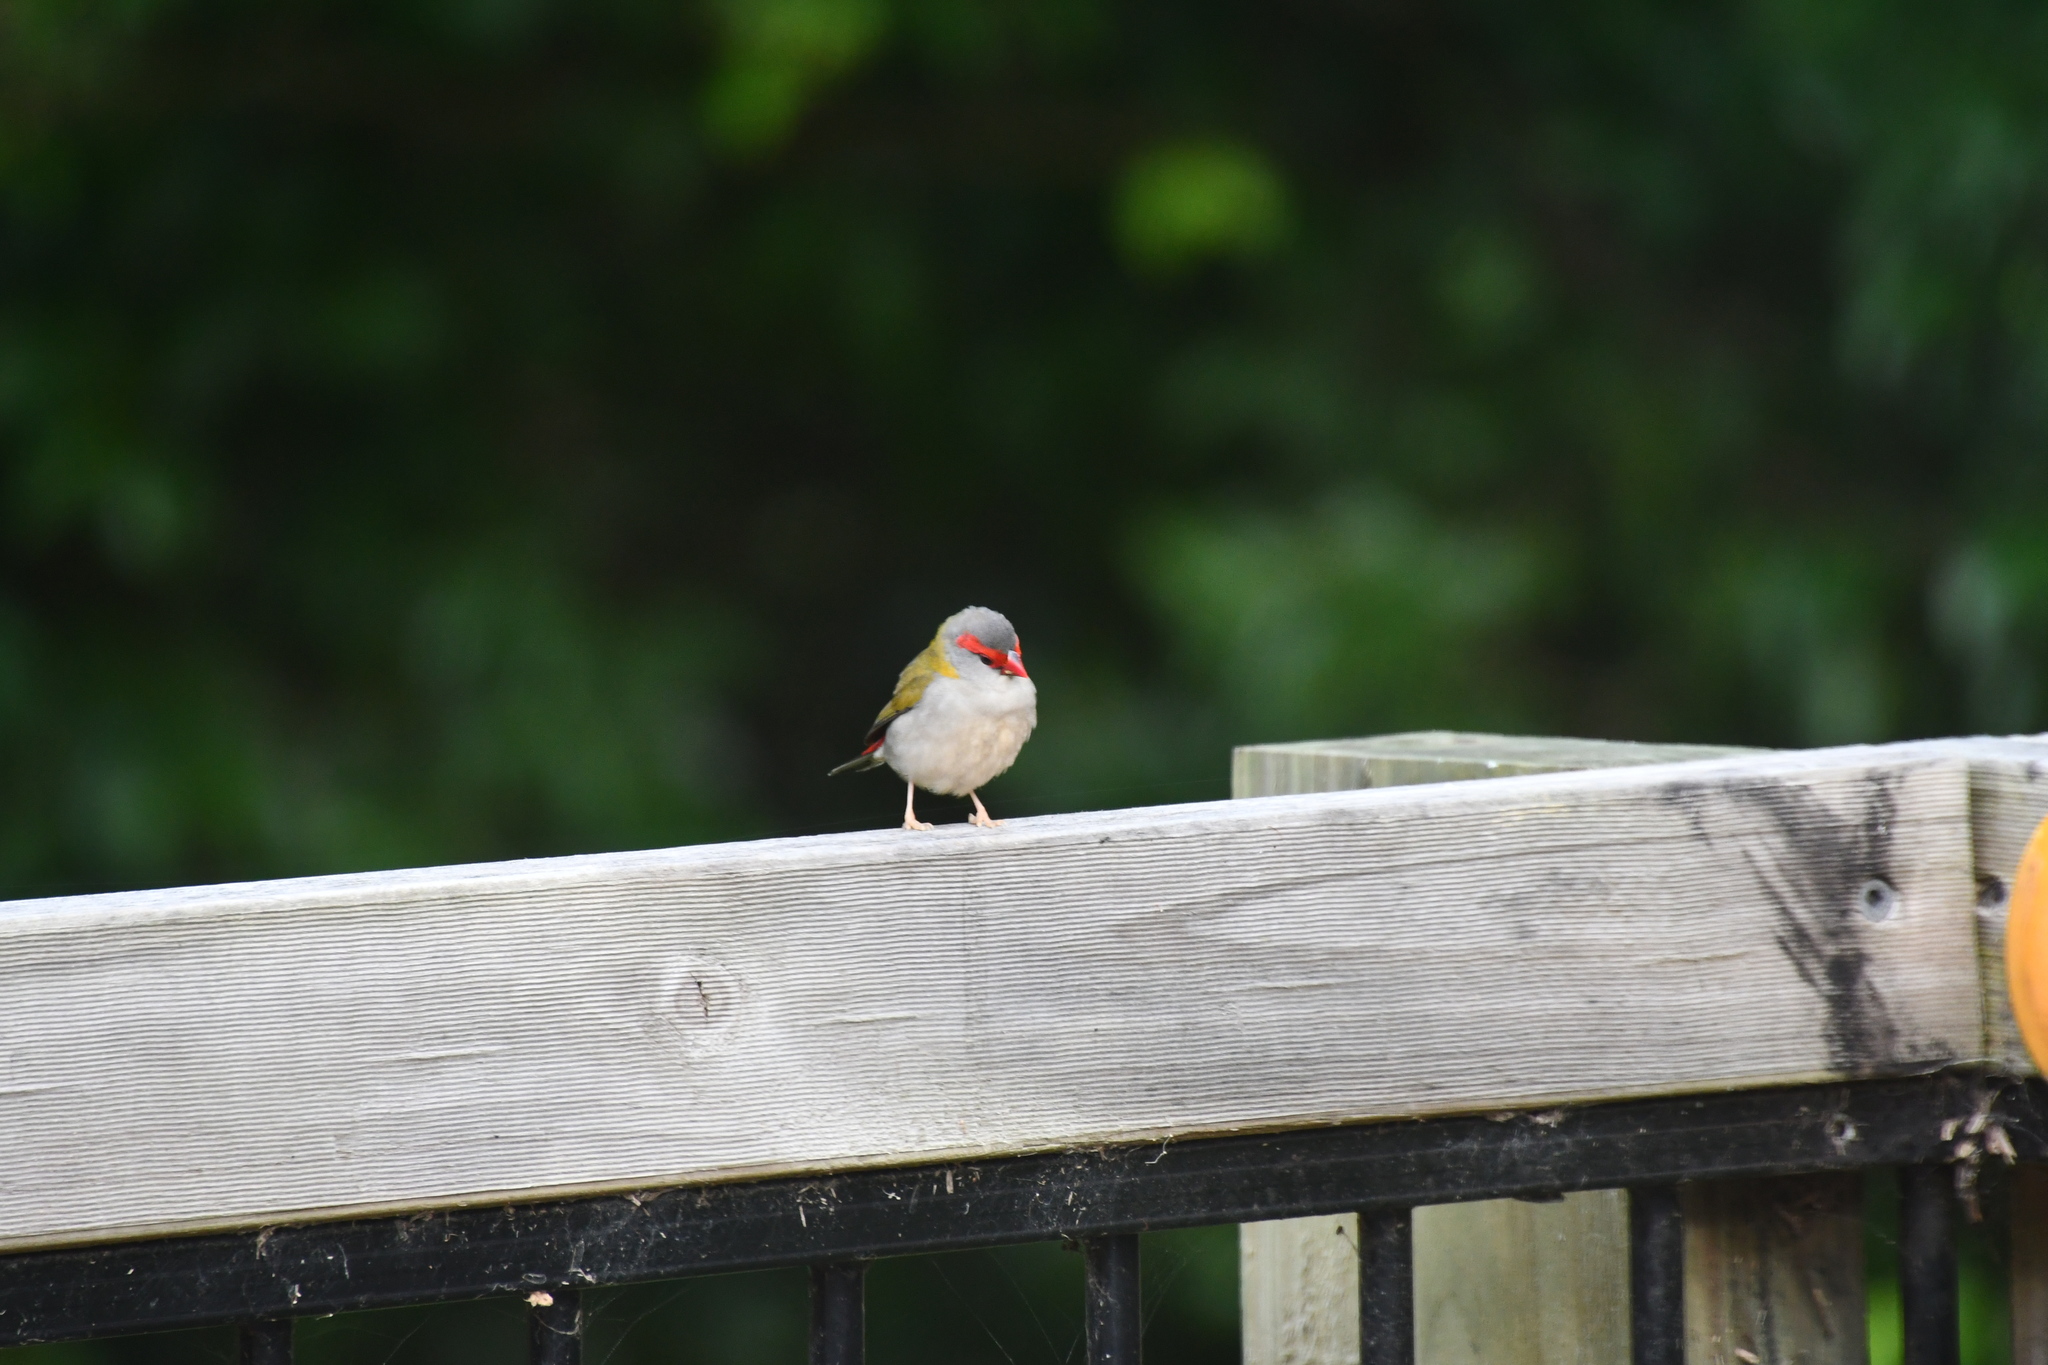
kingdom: Animalia
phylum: Chordata
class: Aves
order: Passeriformes
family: Estrildidae
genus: Neochmia
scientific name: Neochmia temporalis
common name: Red-browed finch
